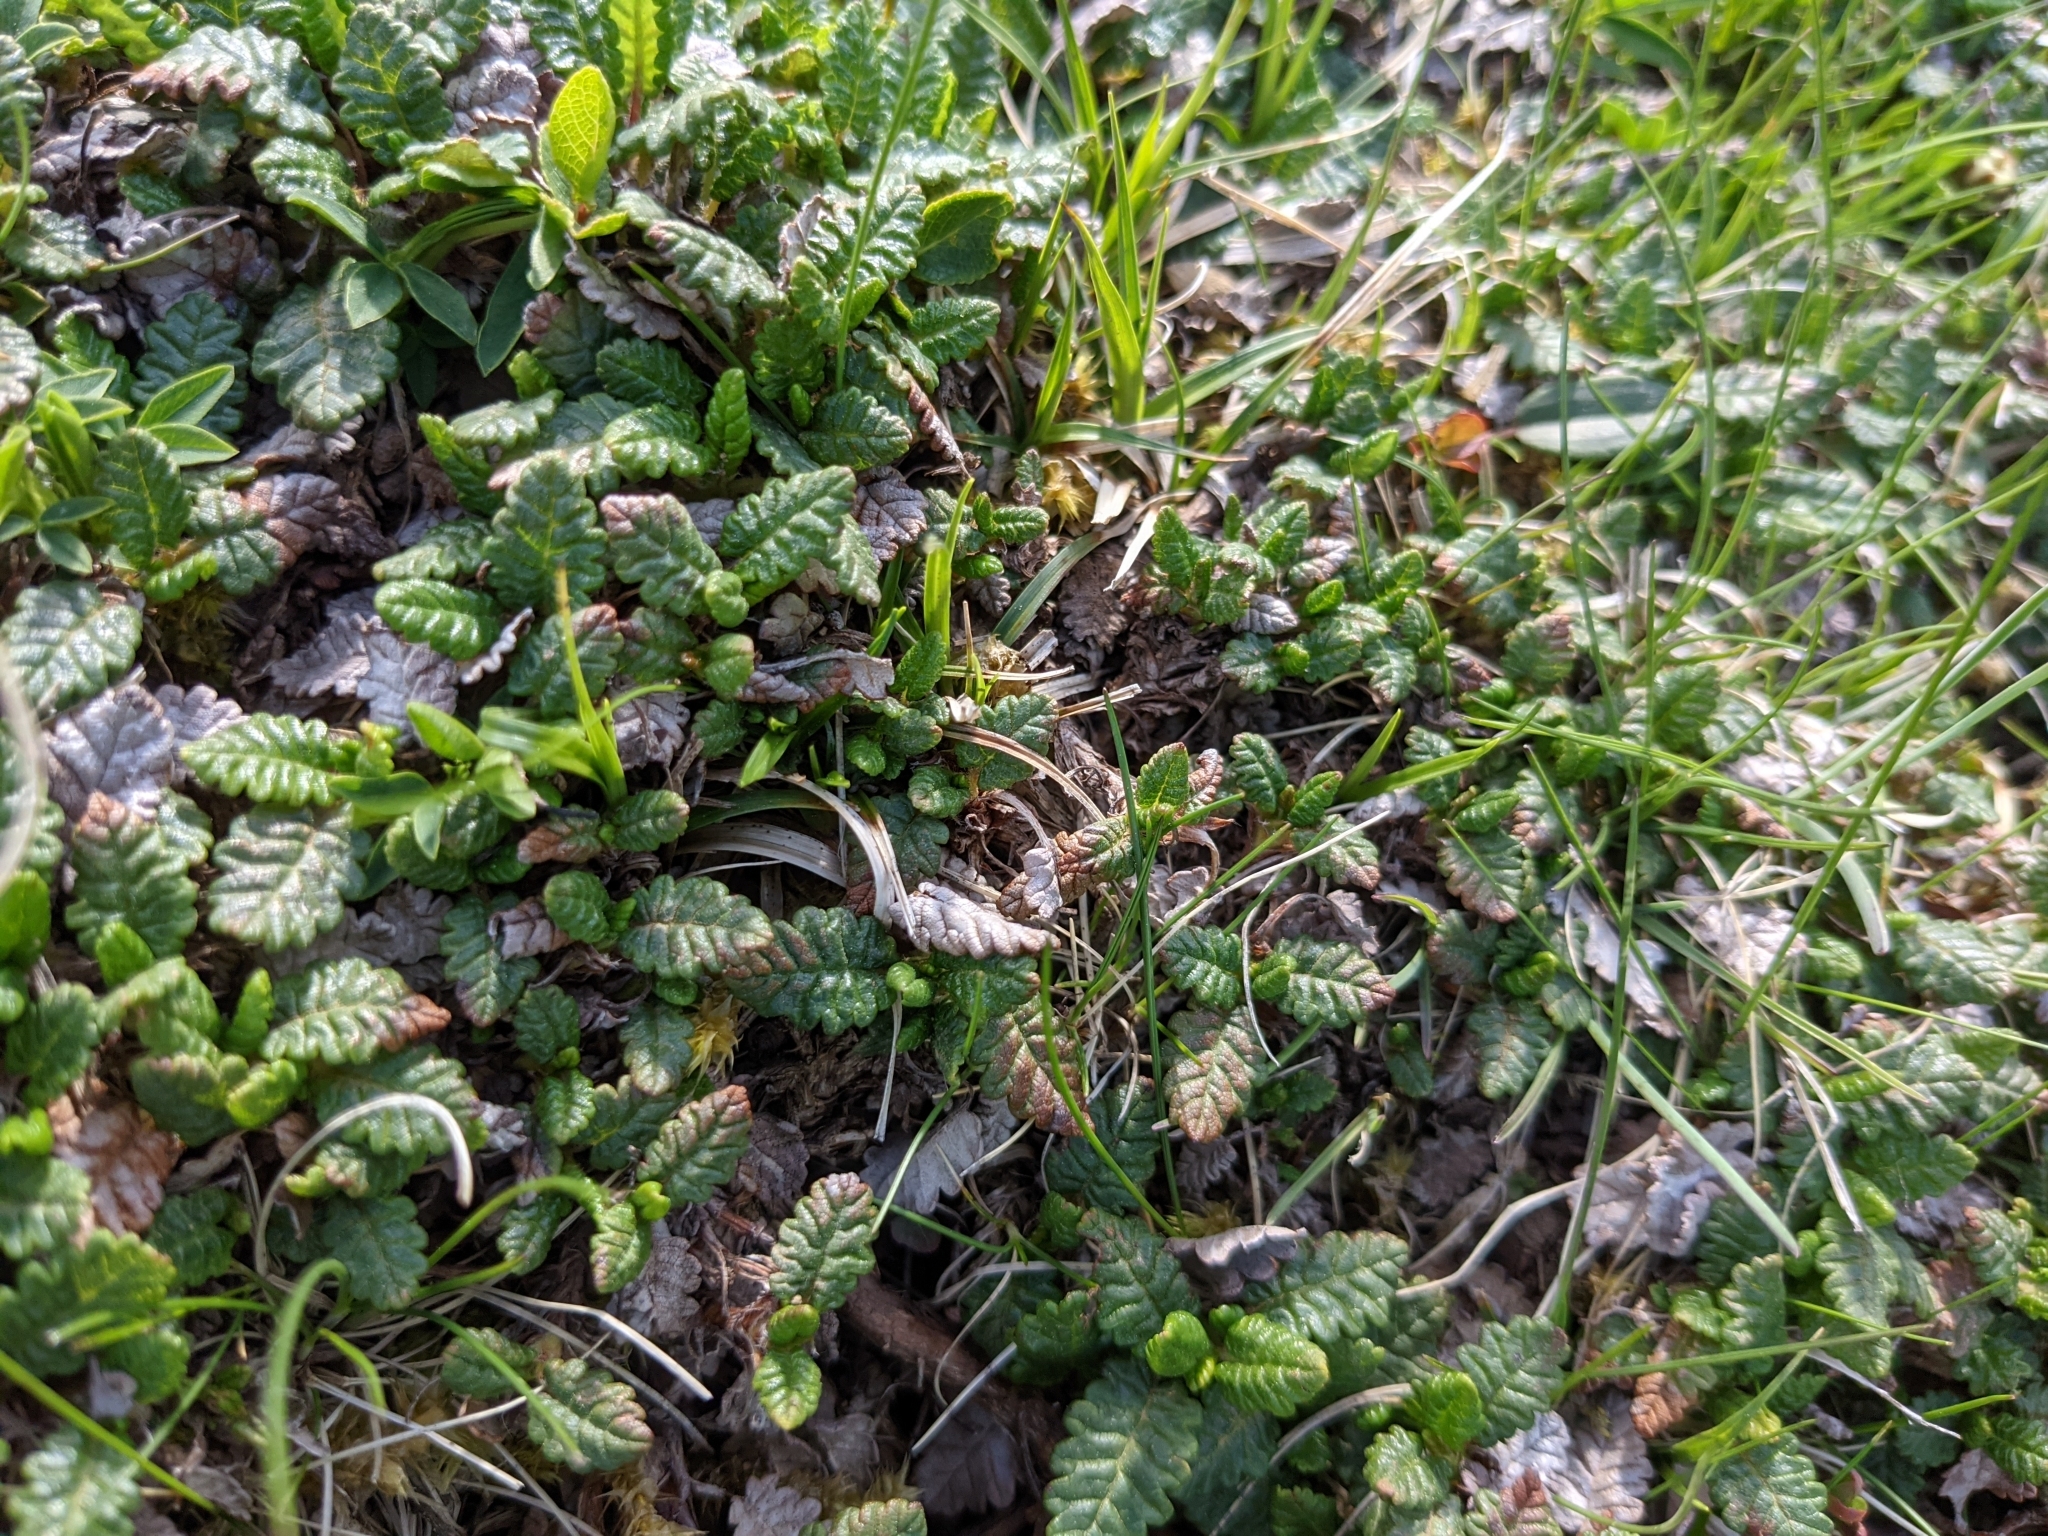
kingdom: Plantae
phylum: Tracheophyta
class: Magnoliopsida
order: Rosales
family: Rosaceae
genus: Dryas
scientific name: Dryas octopetala
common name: Eight-petal mountain-avens
